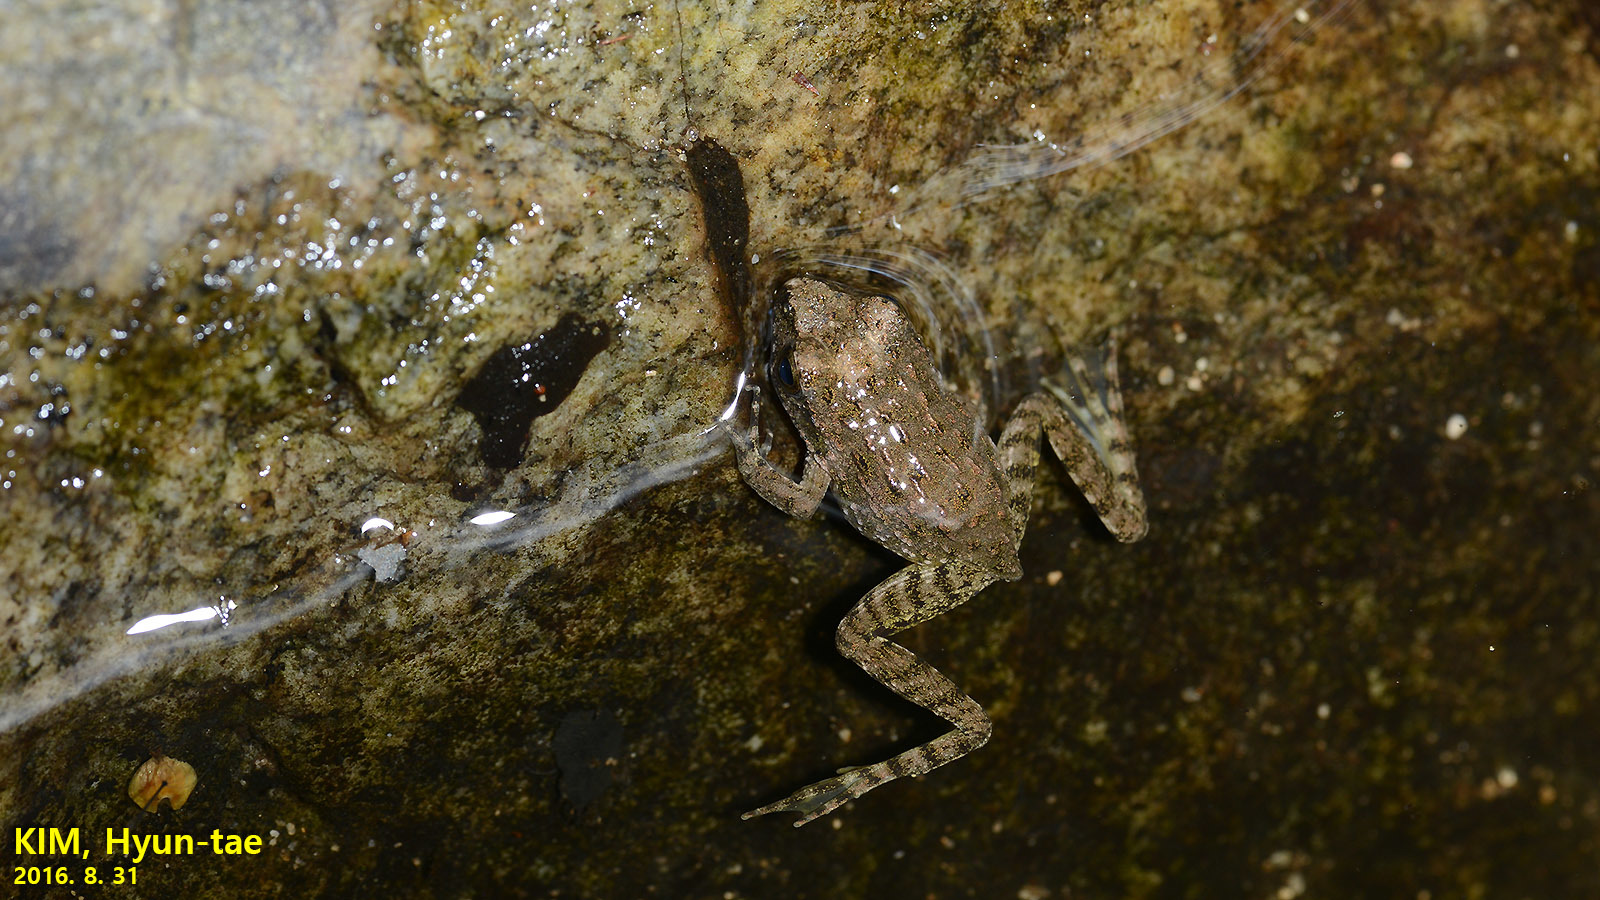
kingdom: Animalia
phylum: Chordata
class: Amphibia
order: Anura
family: Ranidae
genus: Glandirana
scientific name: Glandirana emeljanovi
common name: Northeast china rough-skinned frog
